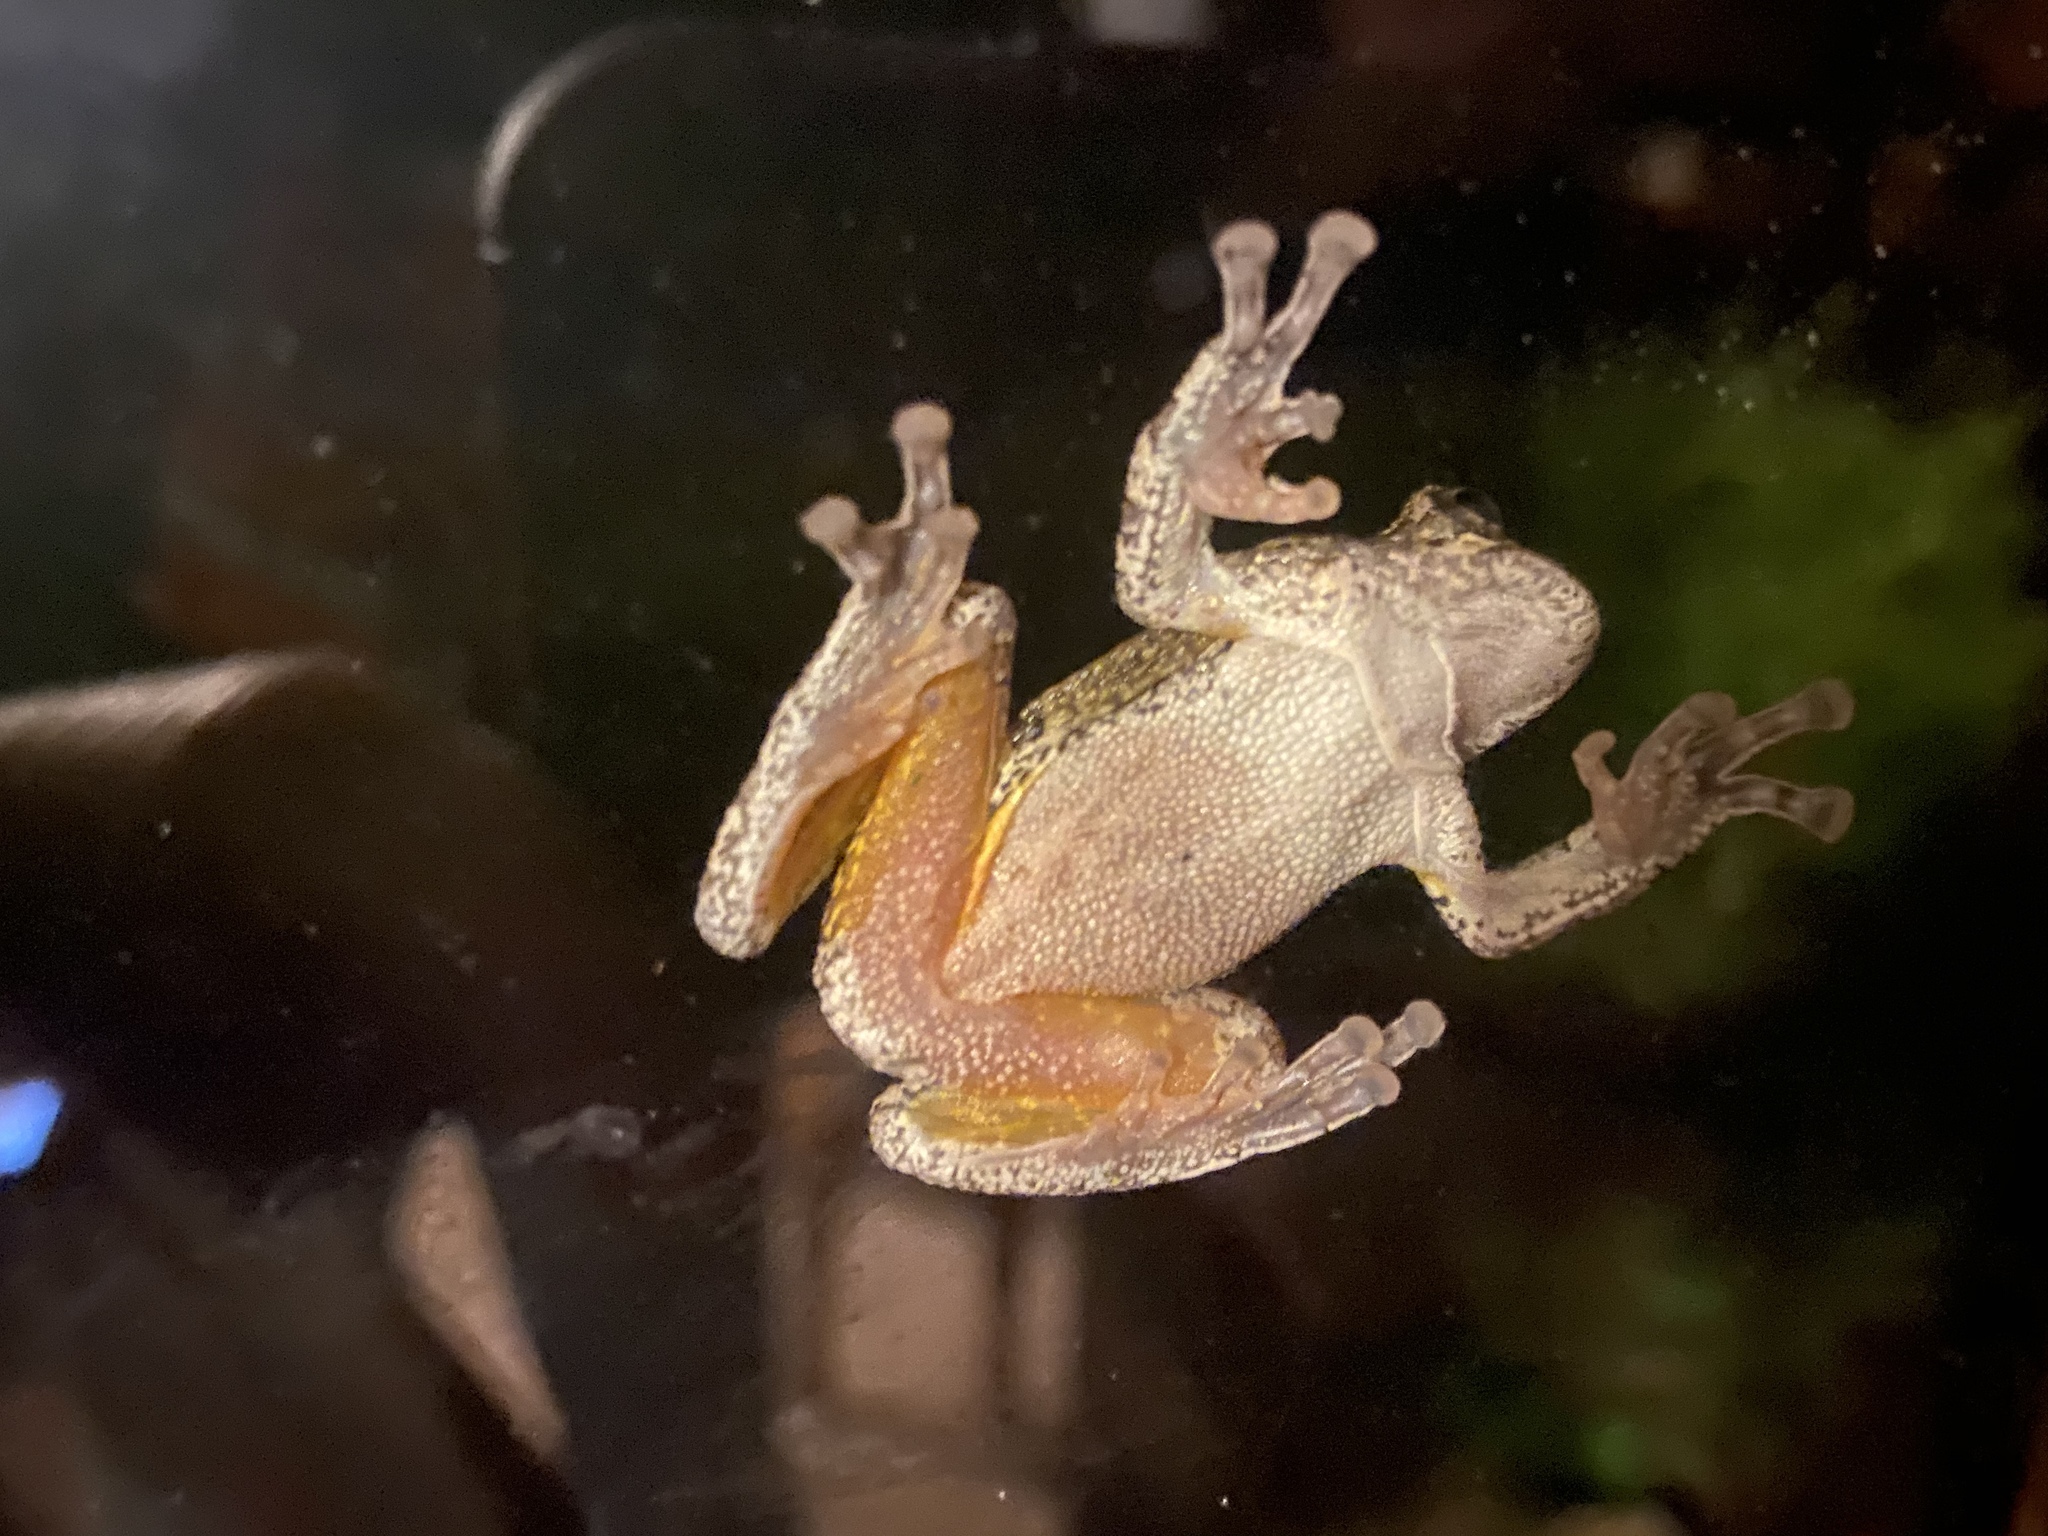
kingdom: Animalia
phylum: Chordata
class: Amphibia
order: Anura
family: Hylidae
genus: Dryophytes
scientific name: Dryophytes chrysoscelis
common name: Cope's gray treefrog
